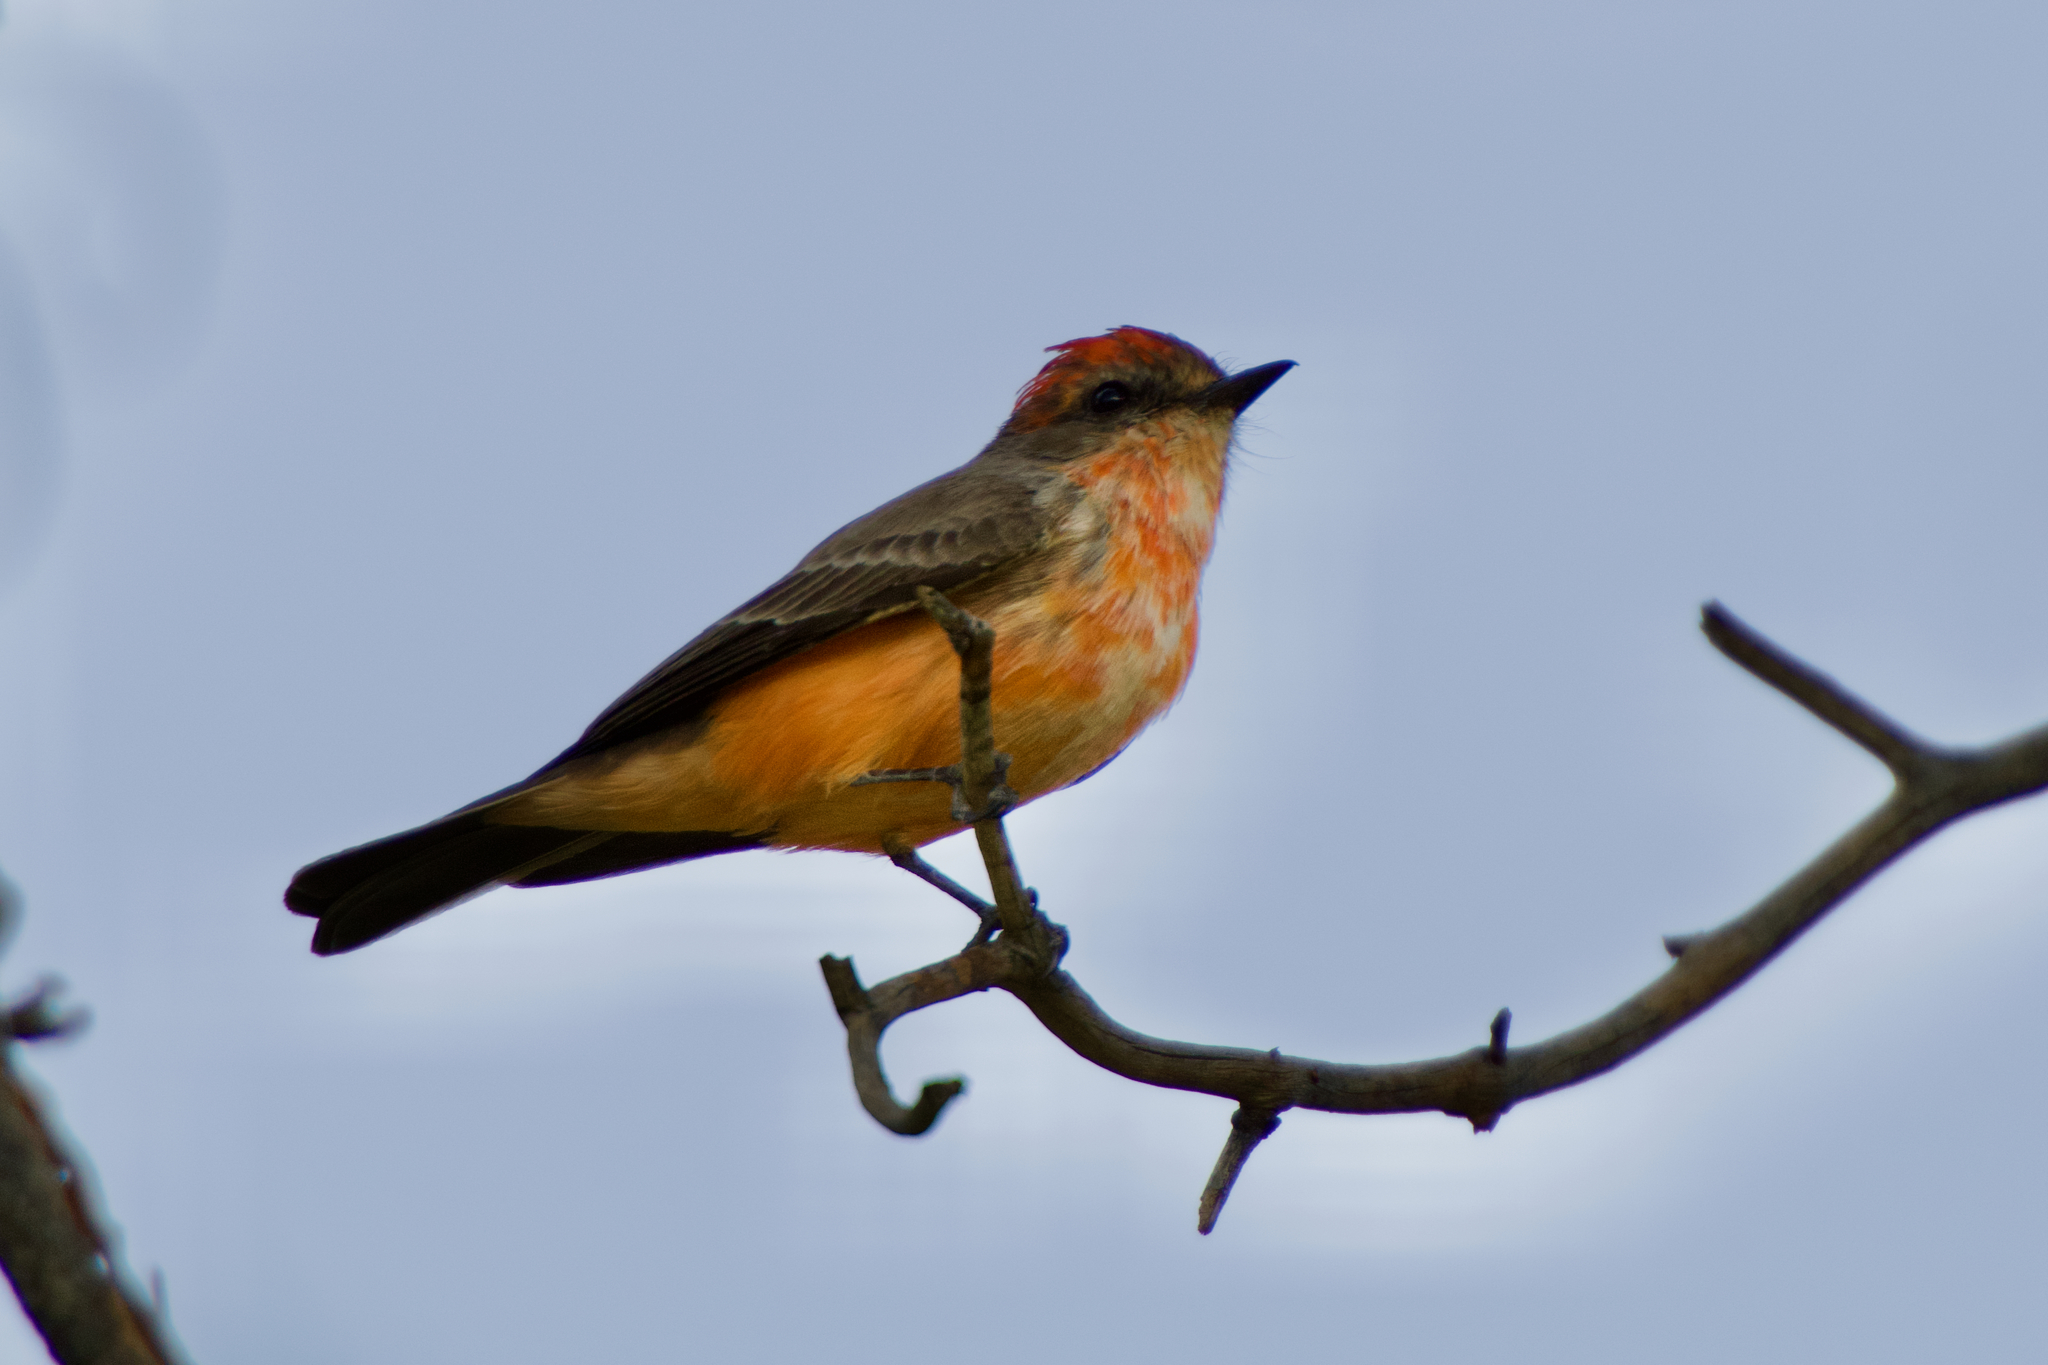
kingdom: Animalia
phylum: Chordata
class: Aves
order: Passeriformes
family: Tyrannidae
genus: Pyrocephalus
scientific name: Pyrocephalus rubinus
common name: Vermilion flycatcher
